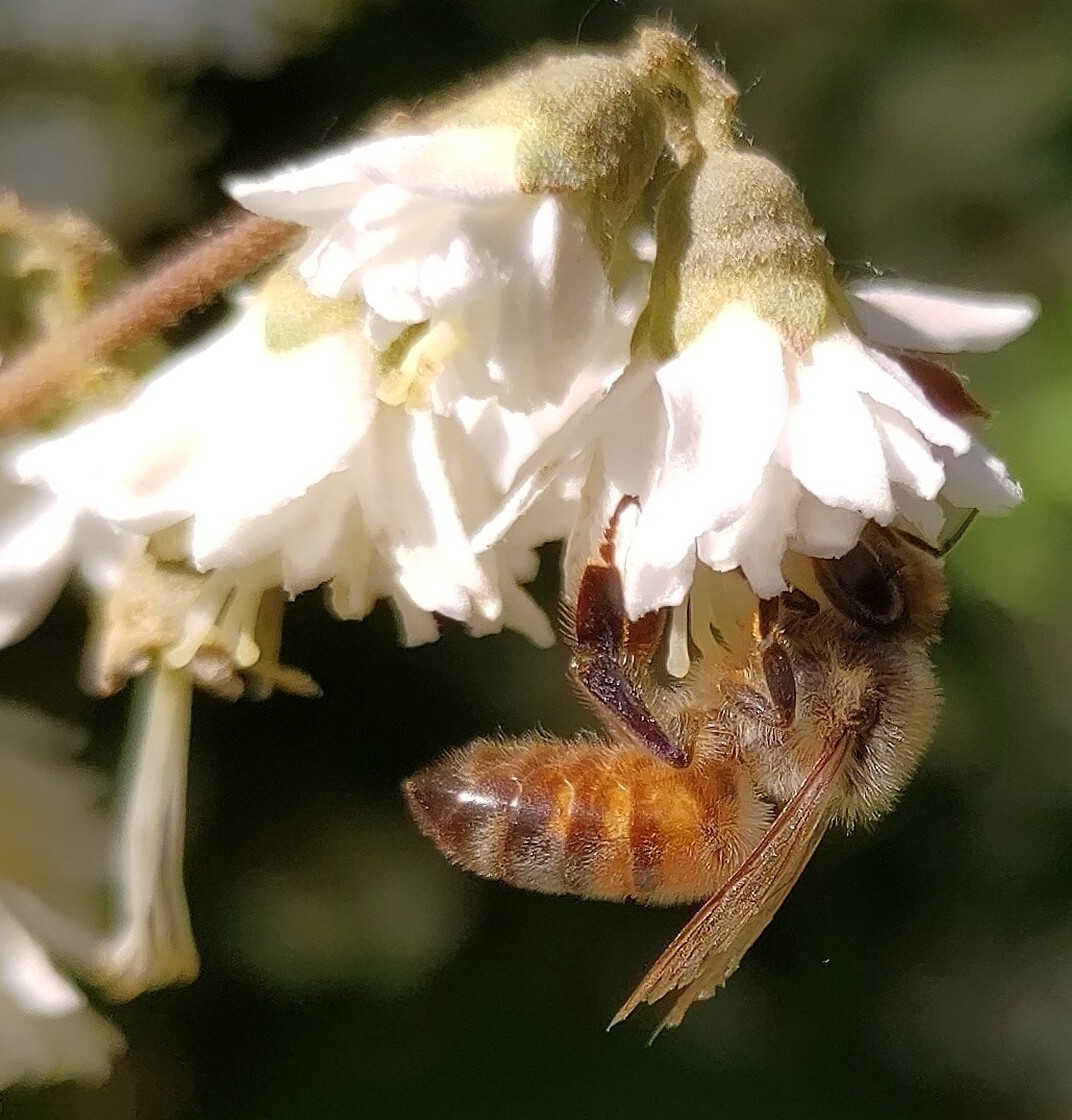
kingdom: Animalia
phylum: Arthropoda
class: Insecta
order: Hymenoptera
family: Apidae
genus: Apis
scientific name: Apis mellifera
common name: Honey bee
